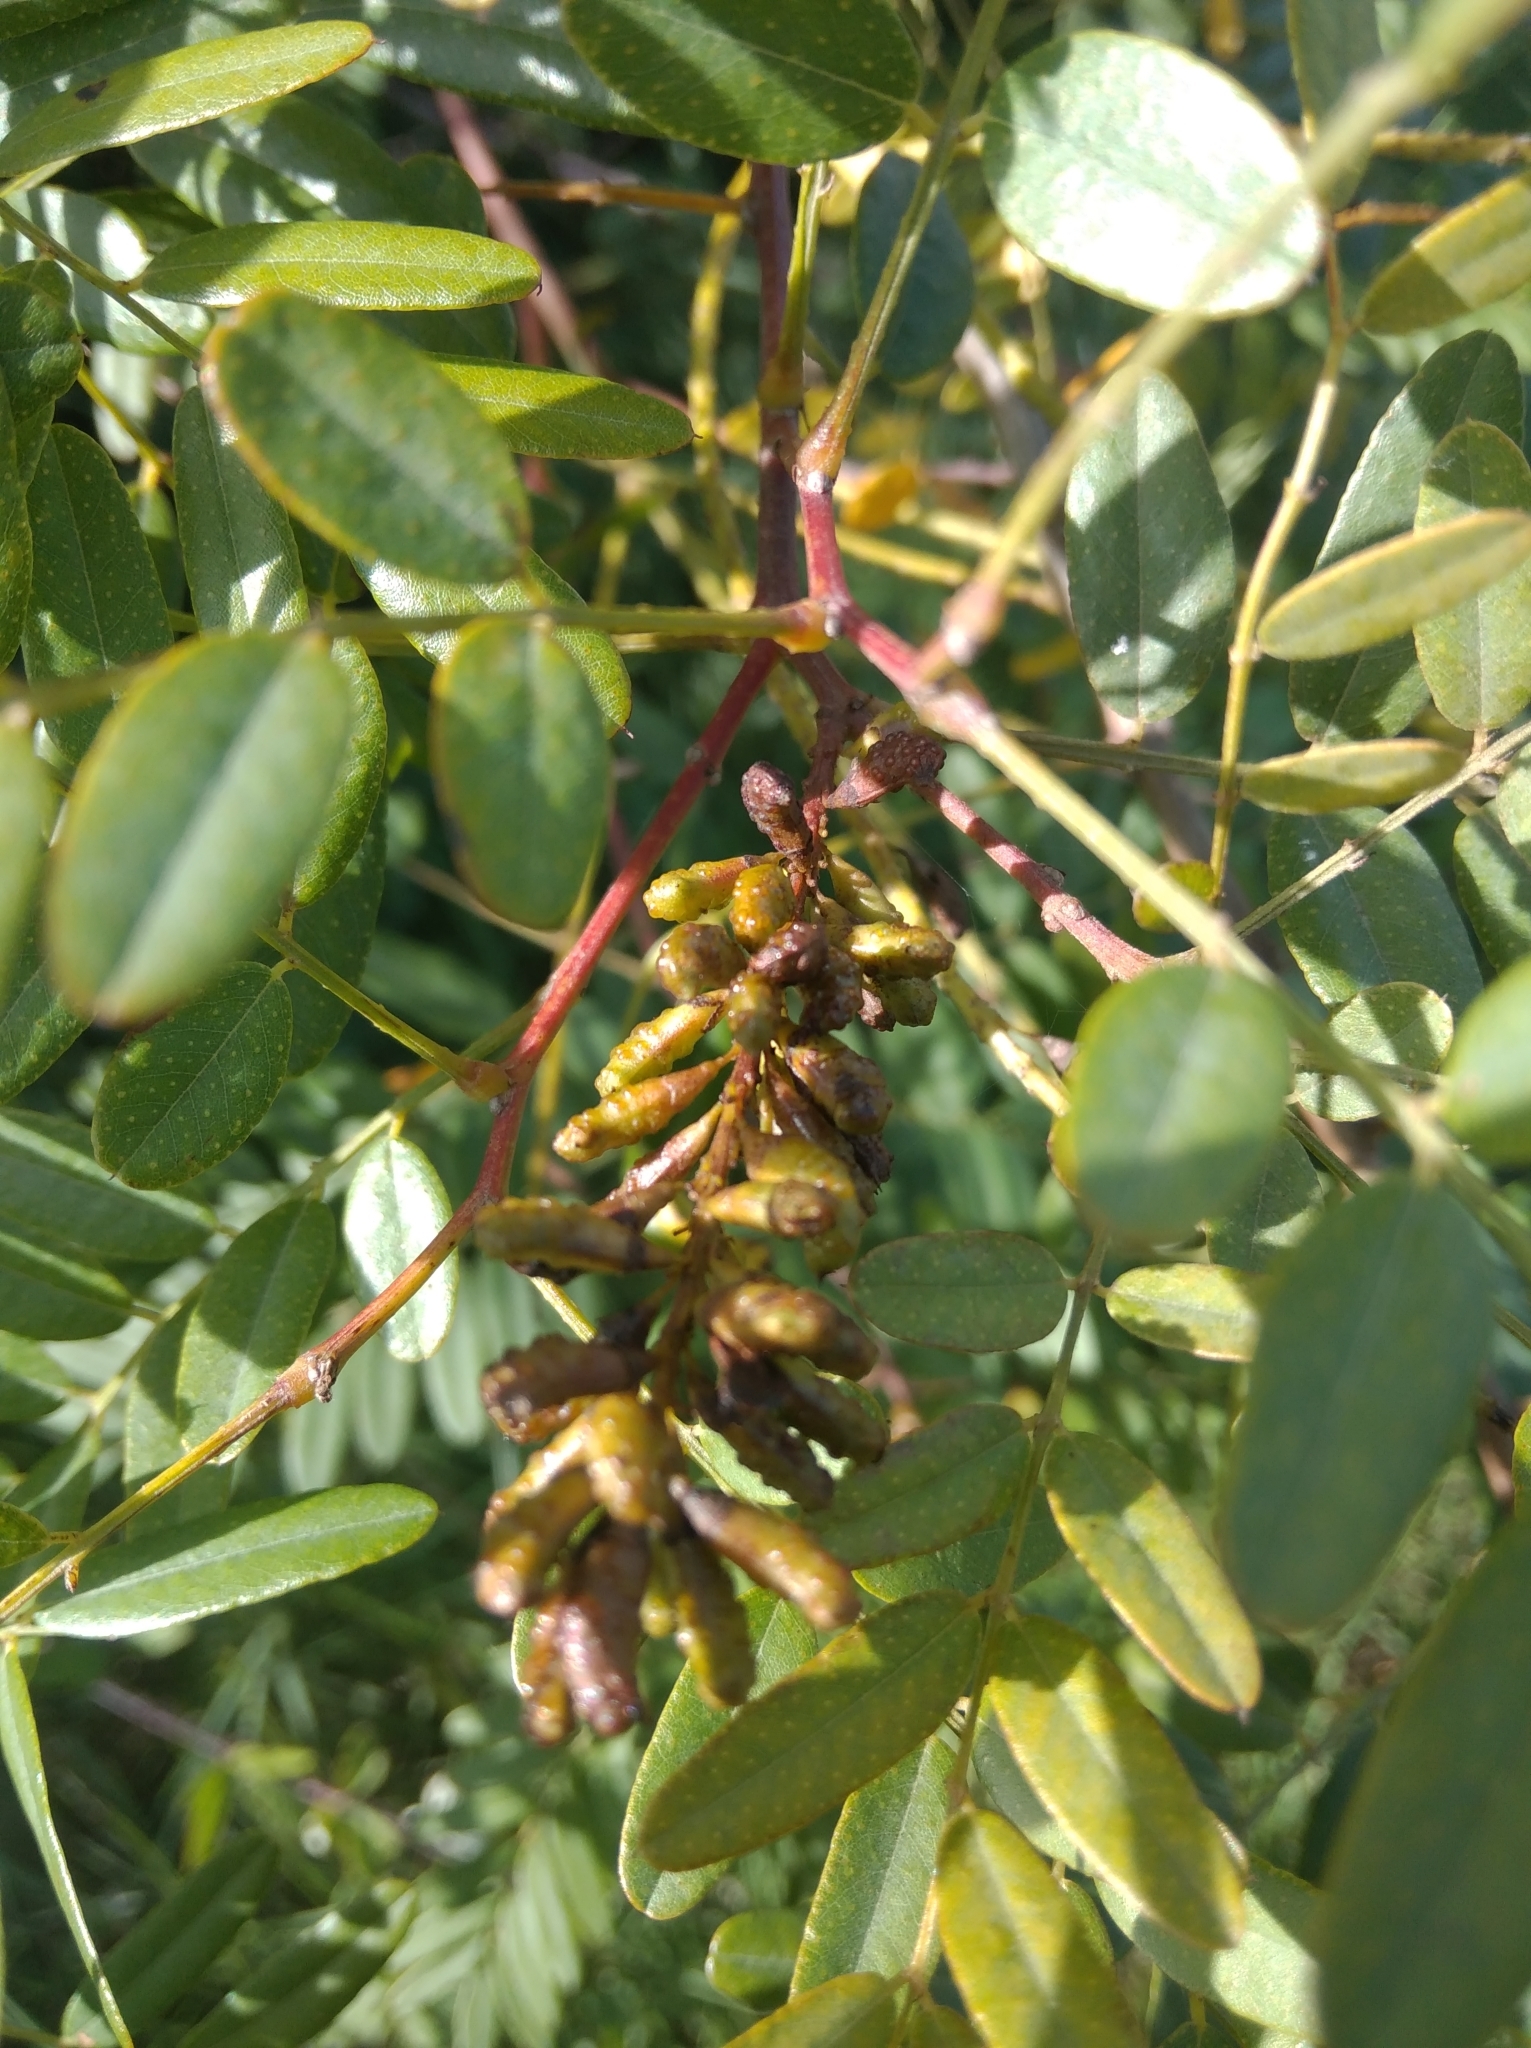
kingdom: Plantae
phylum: Tracheophyta
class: Magnoliopsida
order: Fabales
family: Fabaceae
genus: Amorpha
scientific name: Amorpha fruticosa
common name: False indigo
